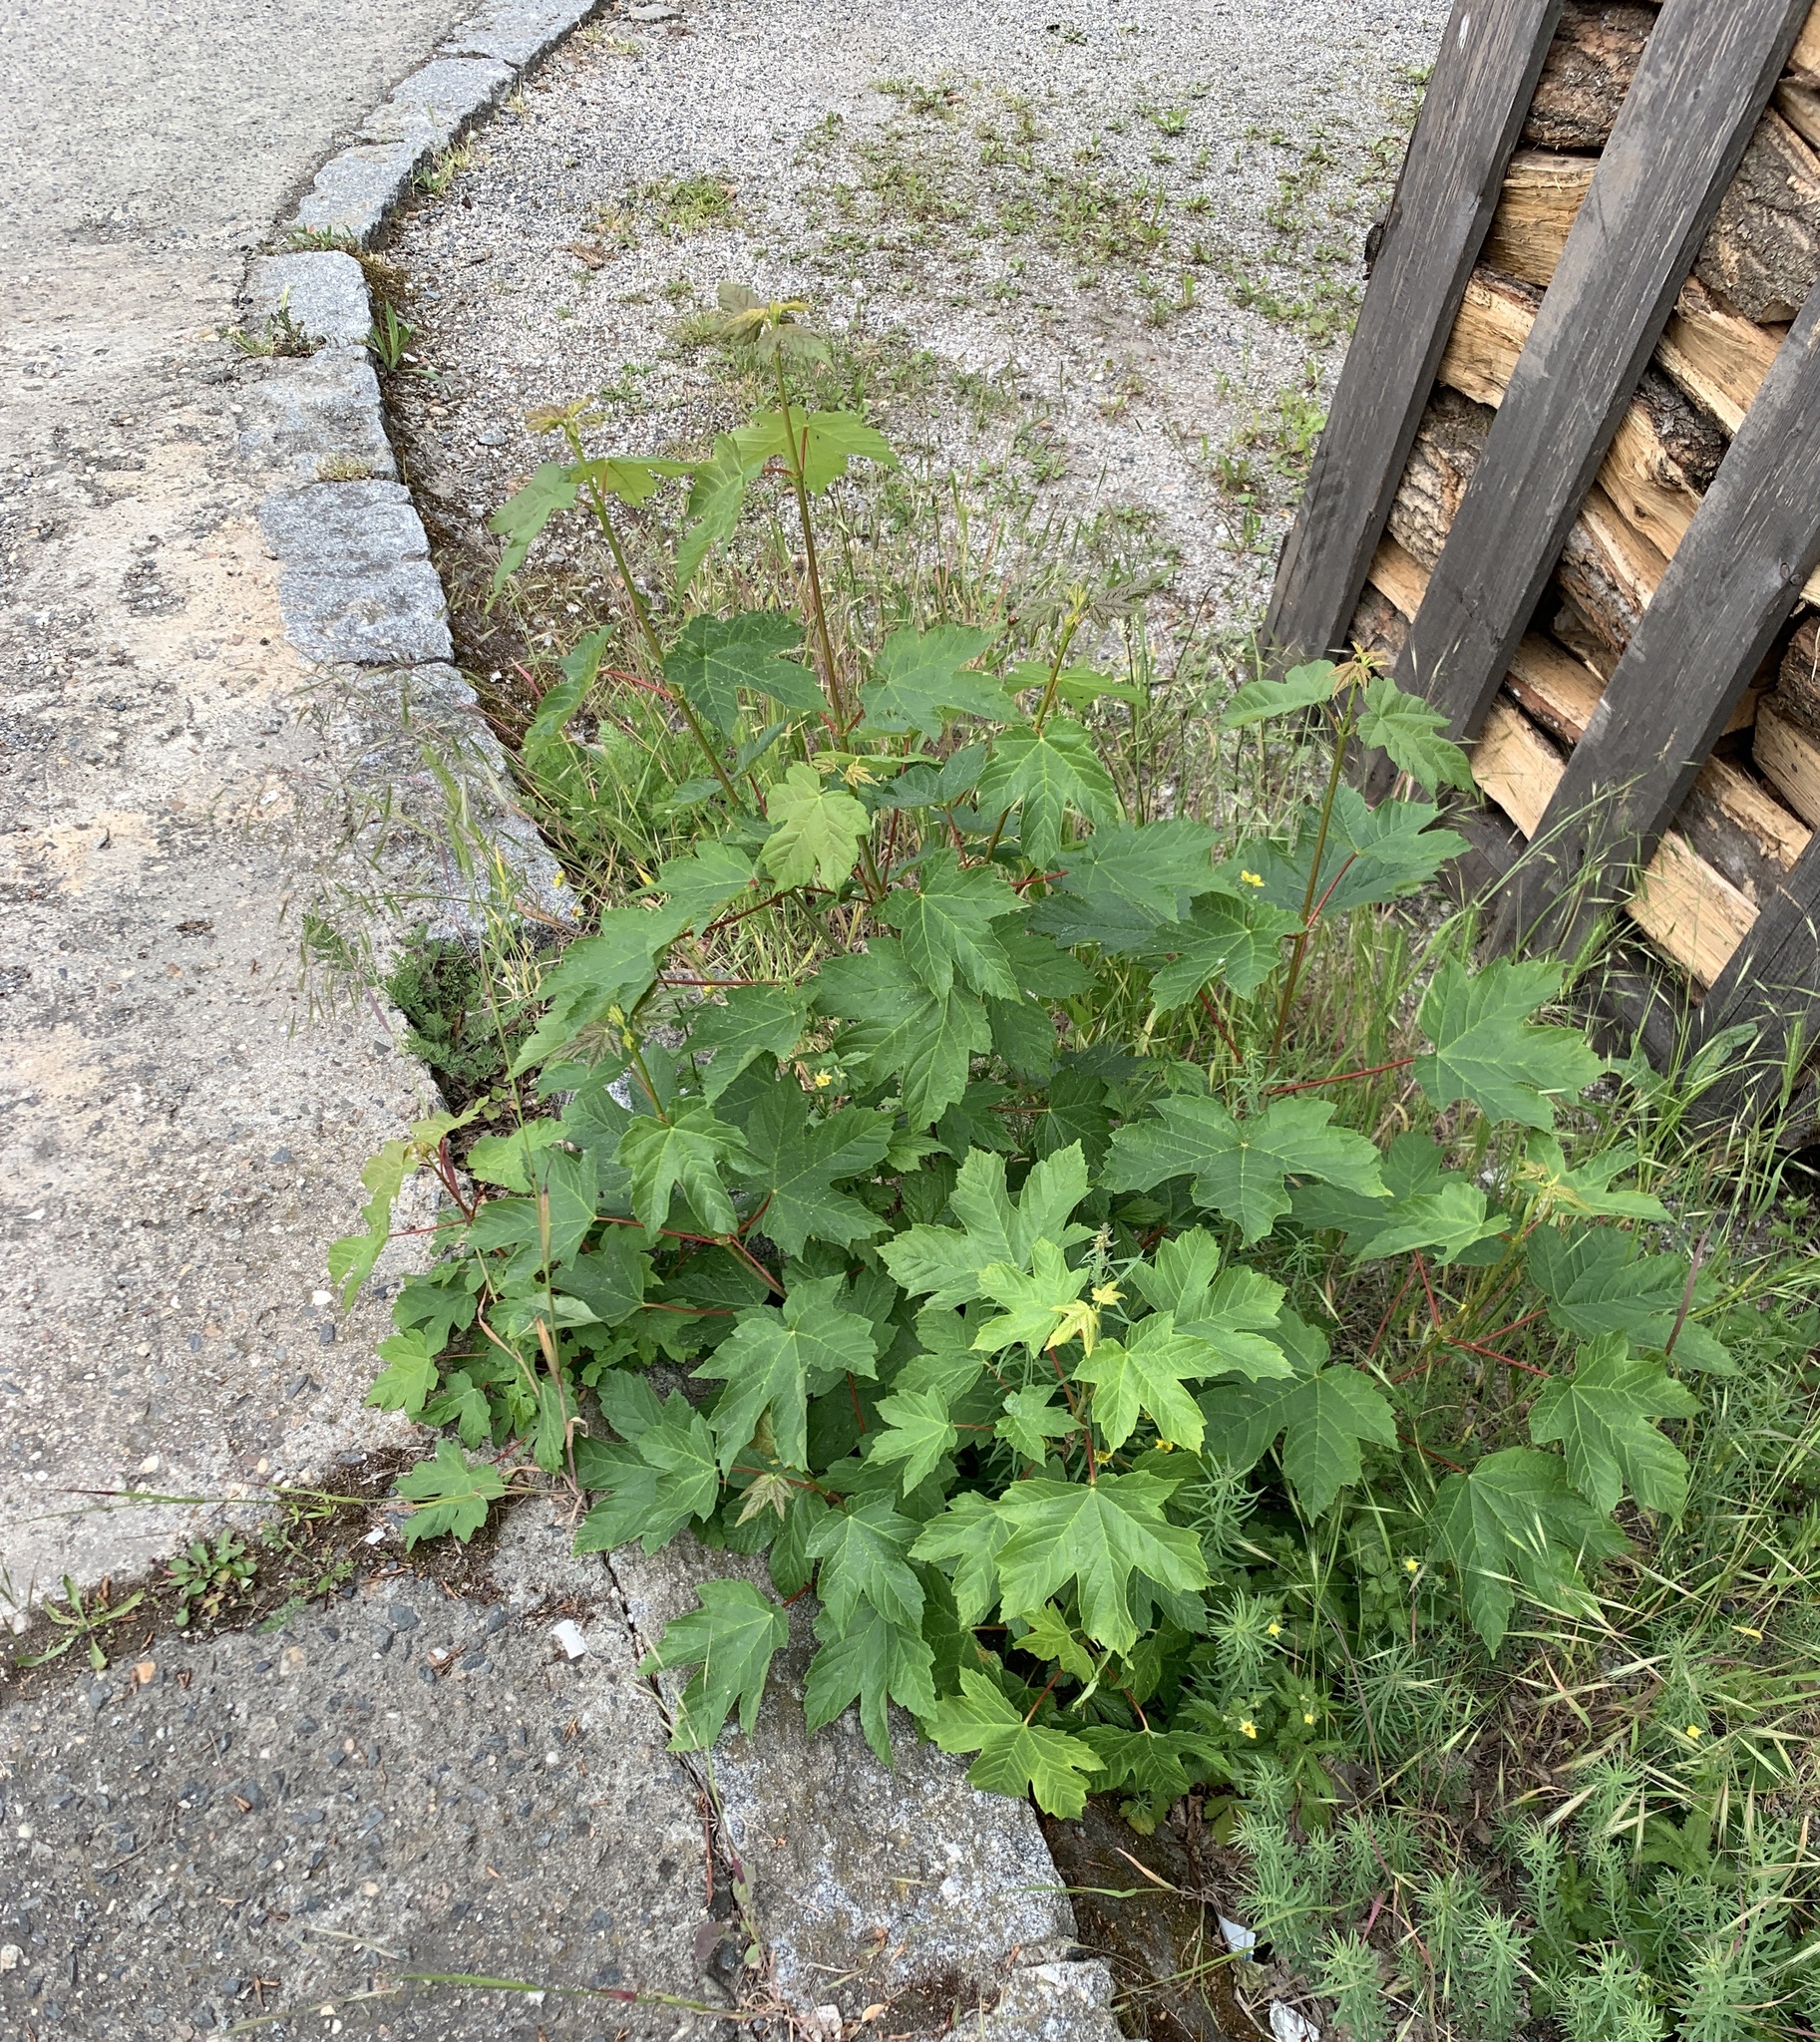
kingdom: Plantae
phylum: Tracheophyta
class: Magnoliopsida
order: Sapindales
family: Sapindaceae
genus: Acer
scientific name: Acer pseudoplatanus
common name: Sycamore
